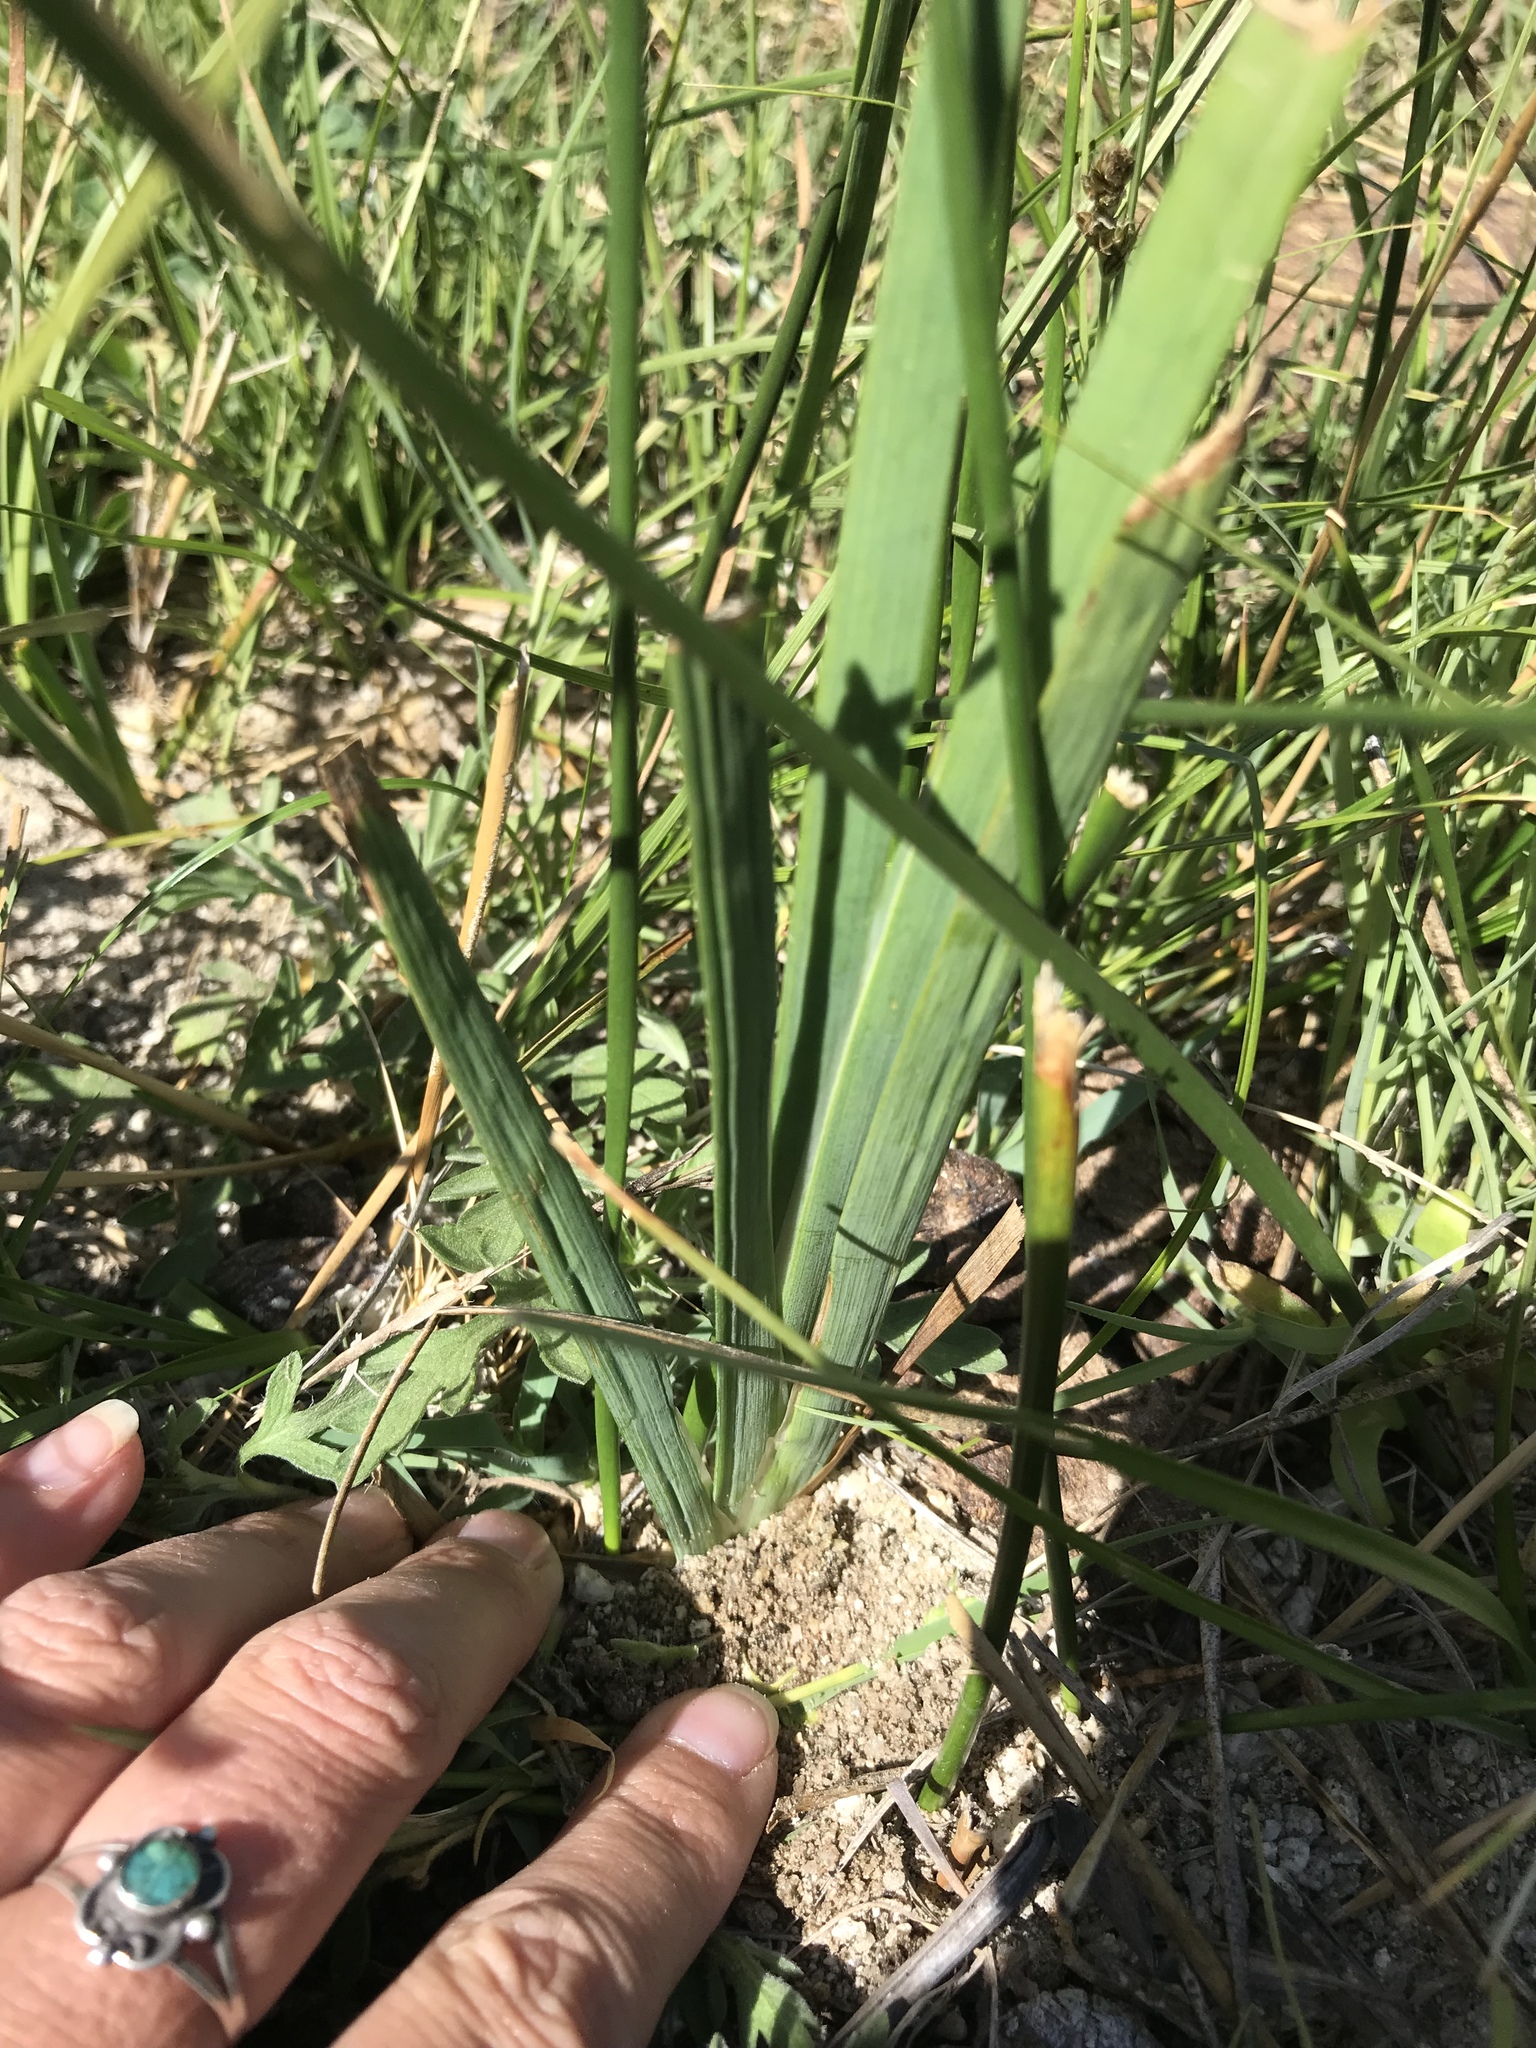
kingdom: Plantae
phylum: Tracheophyta
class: Liliopsida
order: Poales
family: Juncaceae
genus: Juncus
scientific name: Juncus xiphioides
